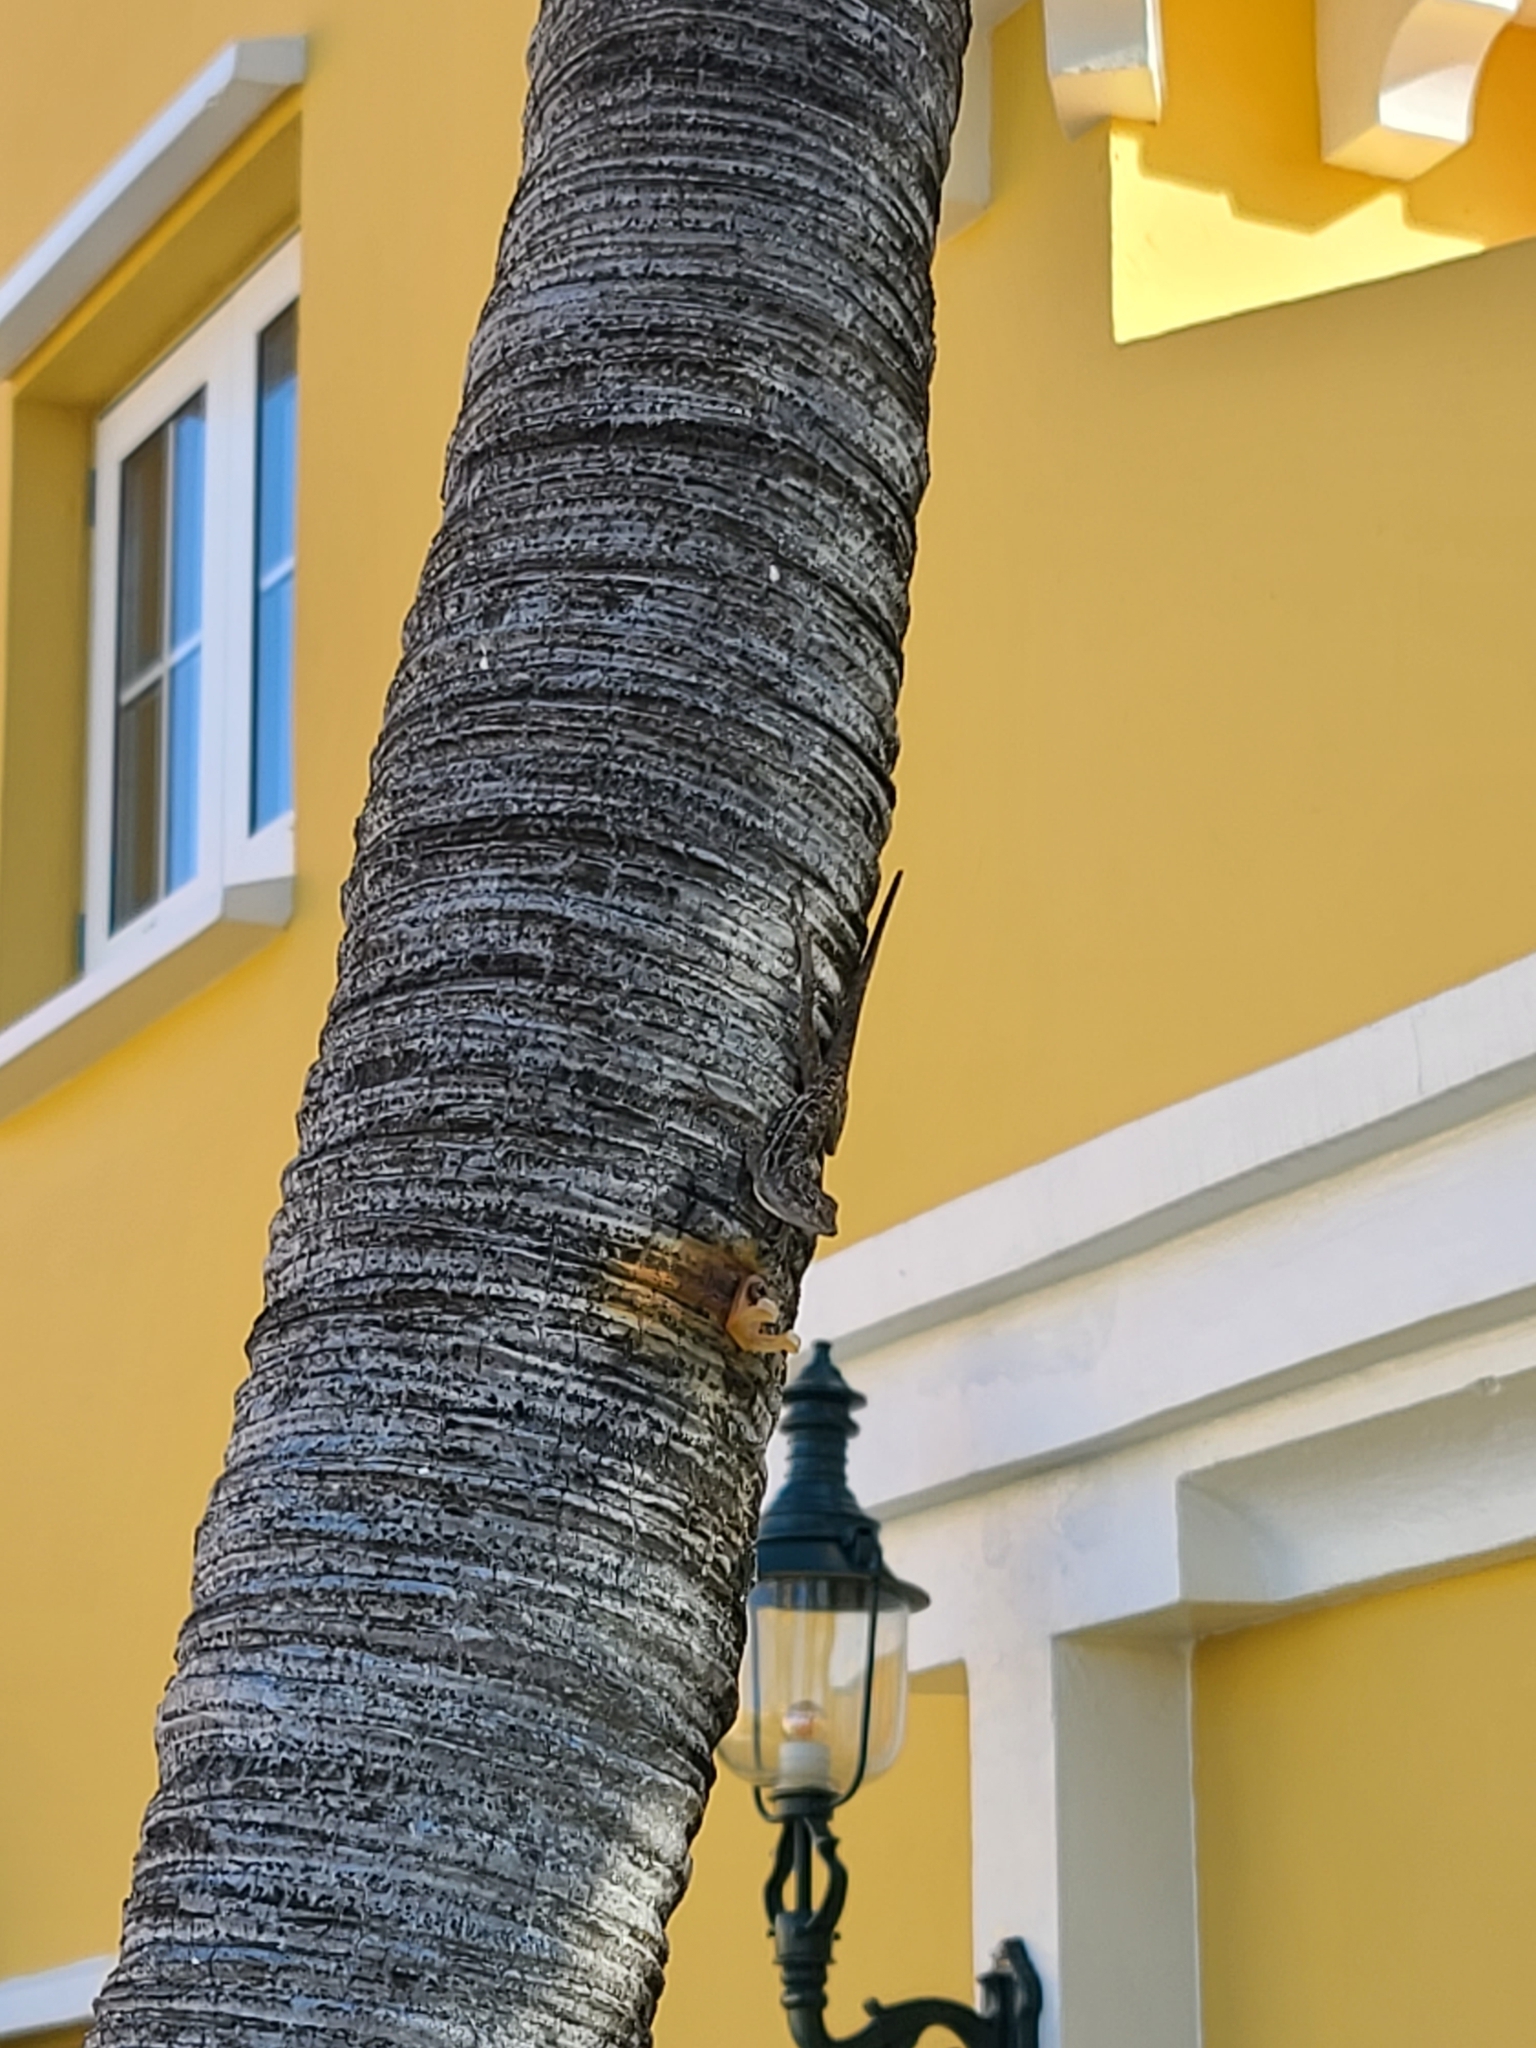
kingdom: Animalia
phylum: Chordata
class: Squamata
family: Dactyloidae
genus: Anolis
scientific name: Anolis lineatus
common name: Striped anole
